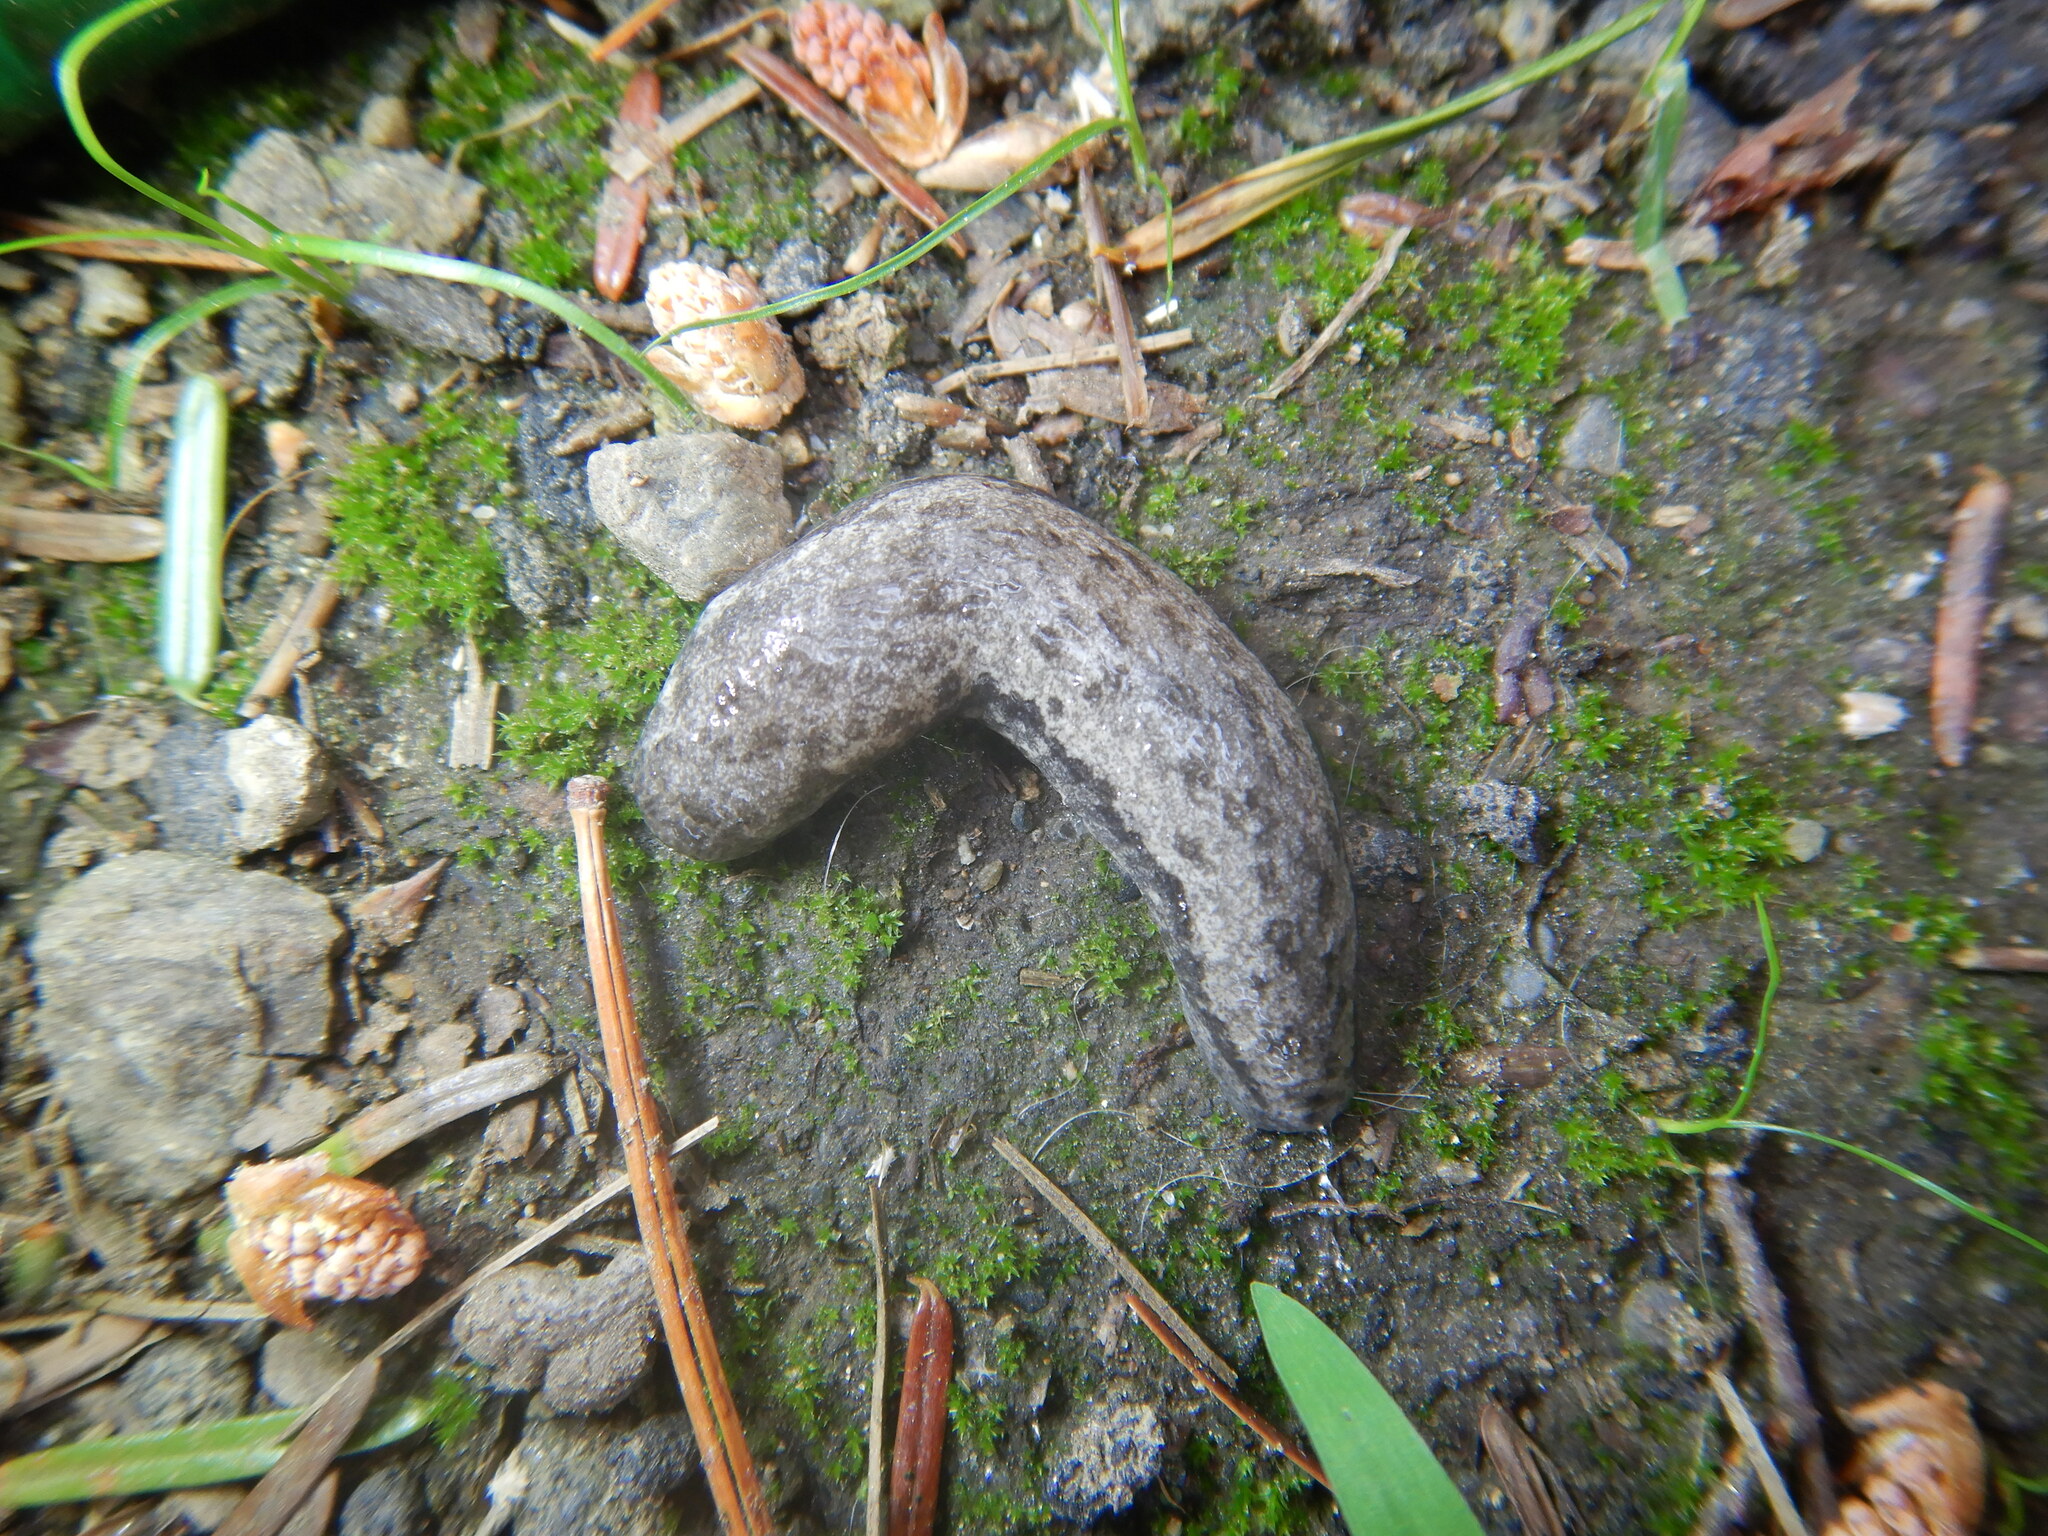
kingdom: Animalia
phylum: Mollusca
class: Gastropoda
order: Stylommatophora
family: Philomycidae
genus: Megapallifera
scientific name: Megapallifera mutabilis
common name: Changeable mantleslug
